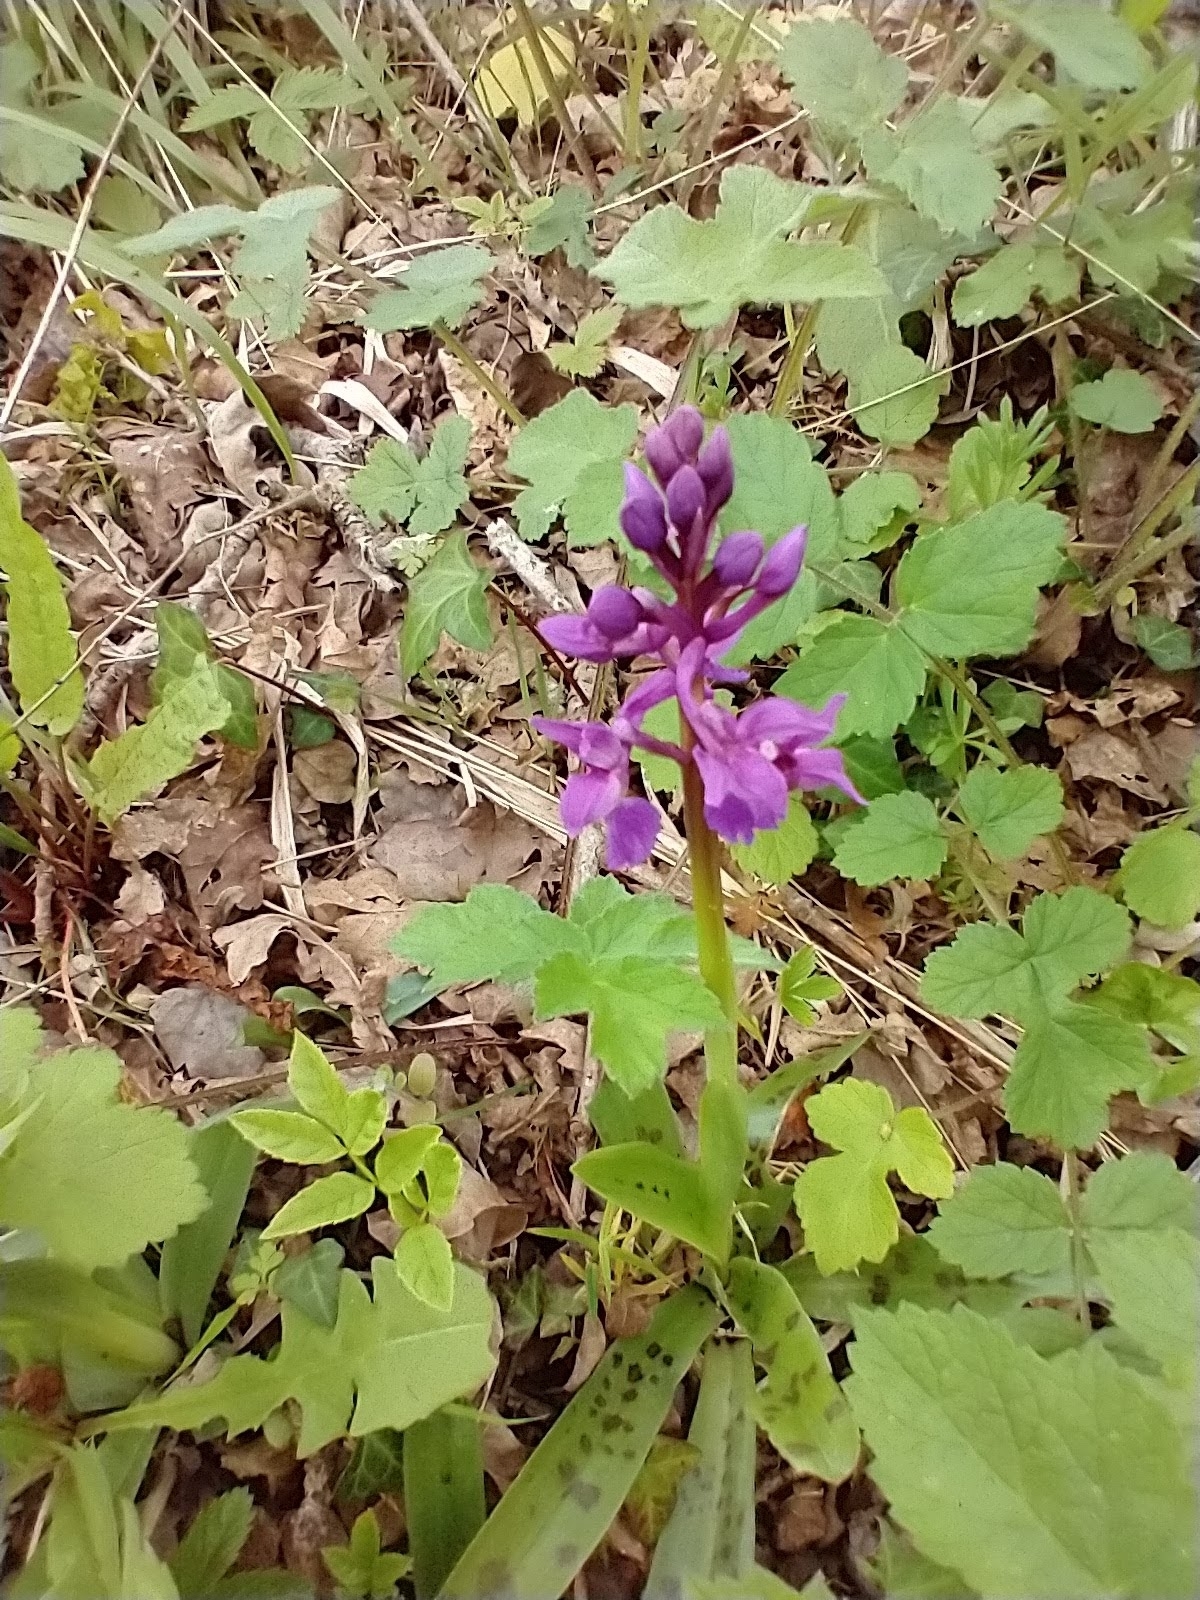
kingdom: Plantae
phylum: Tracheophyta
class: Liliopsida
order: Asparagales
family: Orchidaceae
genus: Orchis
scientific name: Orchis mascula
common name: Early-purple orchid
